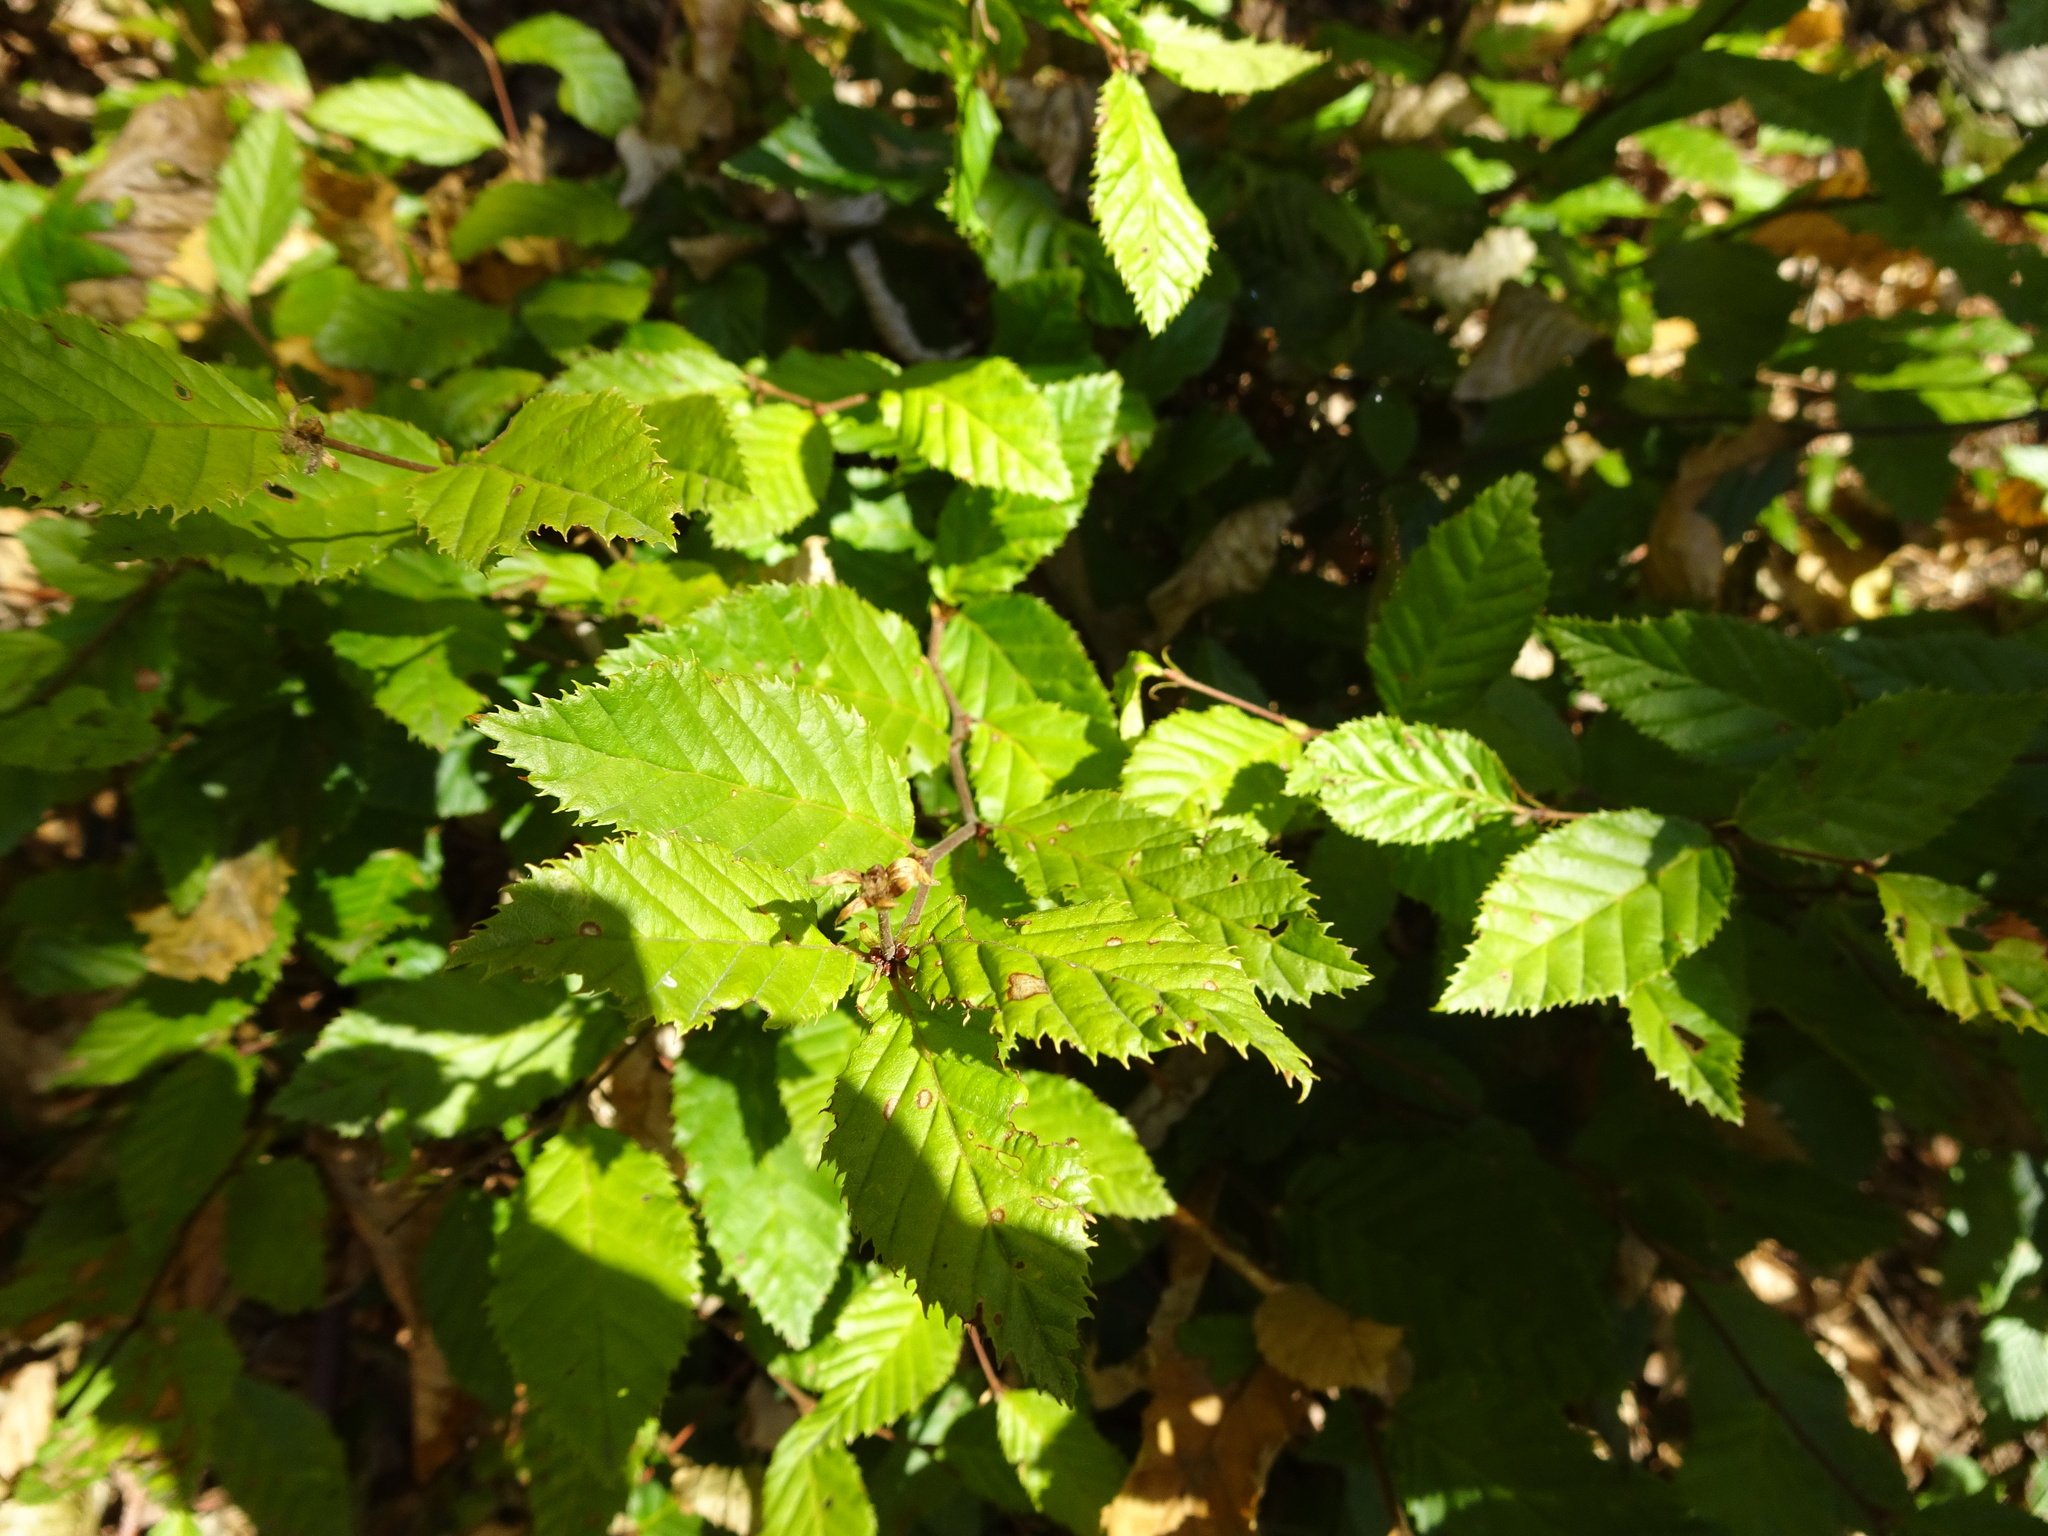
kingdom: Plantae
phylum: Tracheophyta
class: Magnoliopsida
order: Fagales
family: Betulaceae
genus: Carpinus
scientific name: Carpinus betulus
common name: Hornbeam
